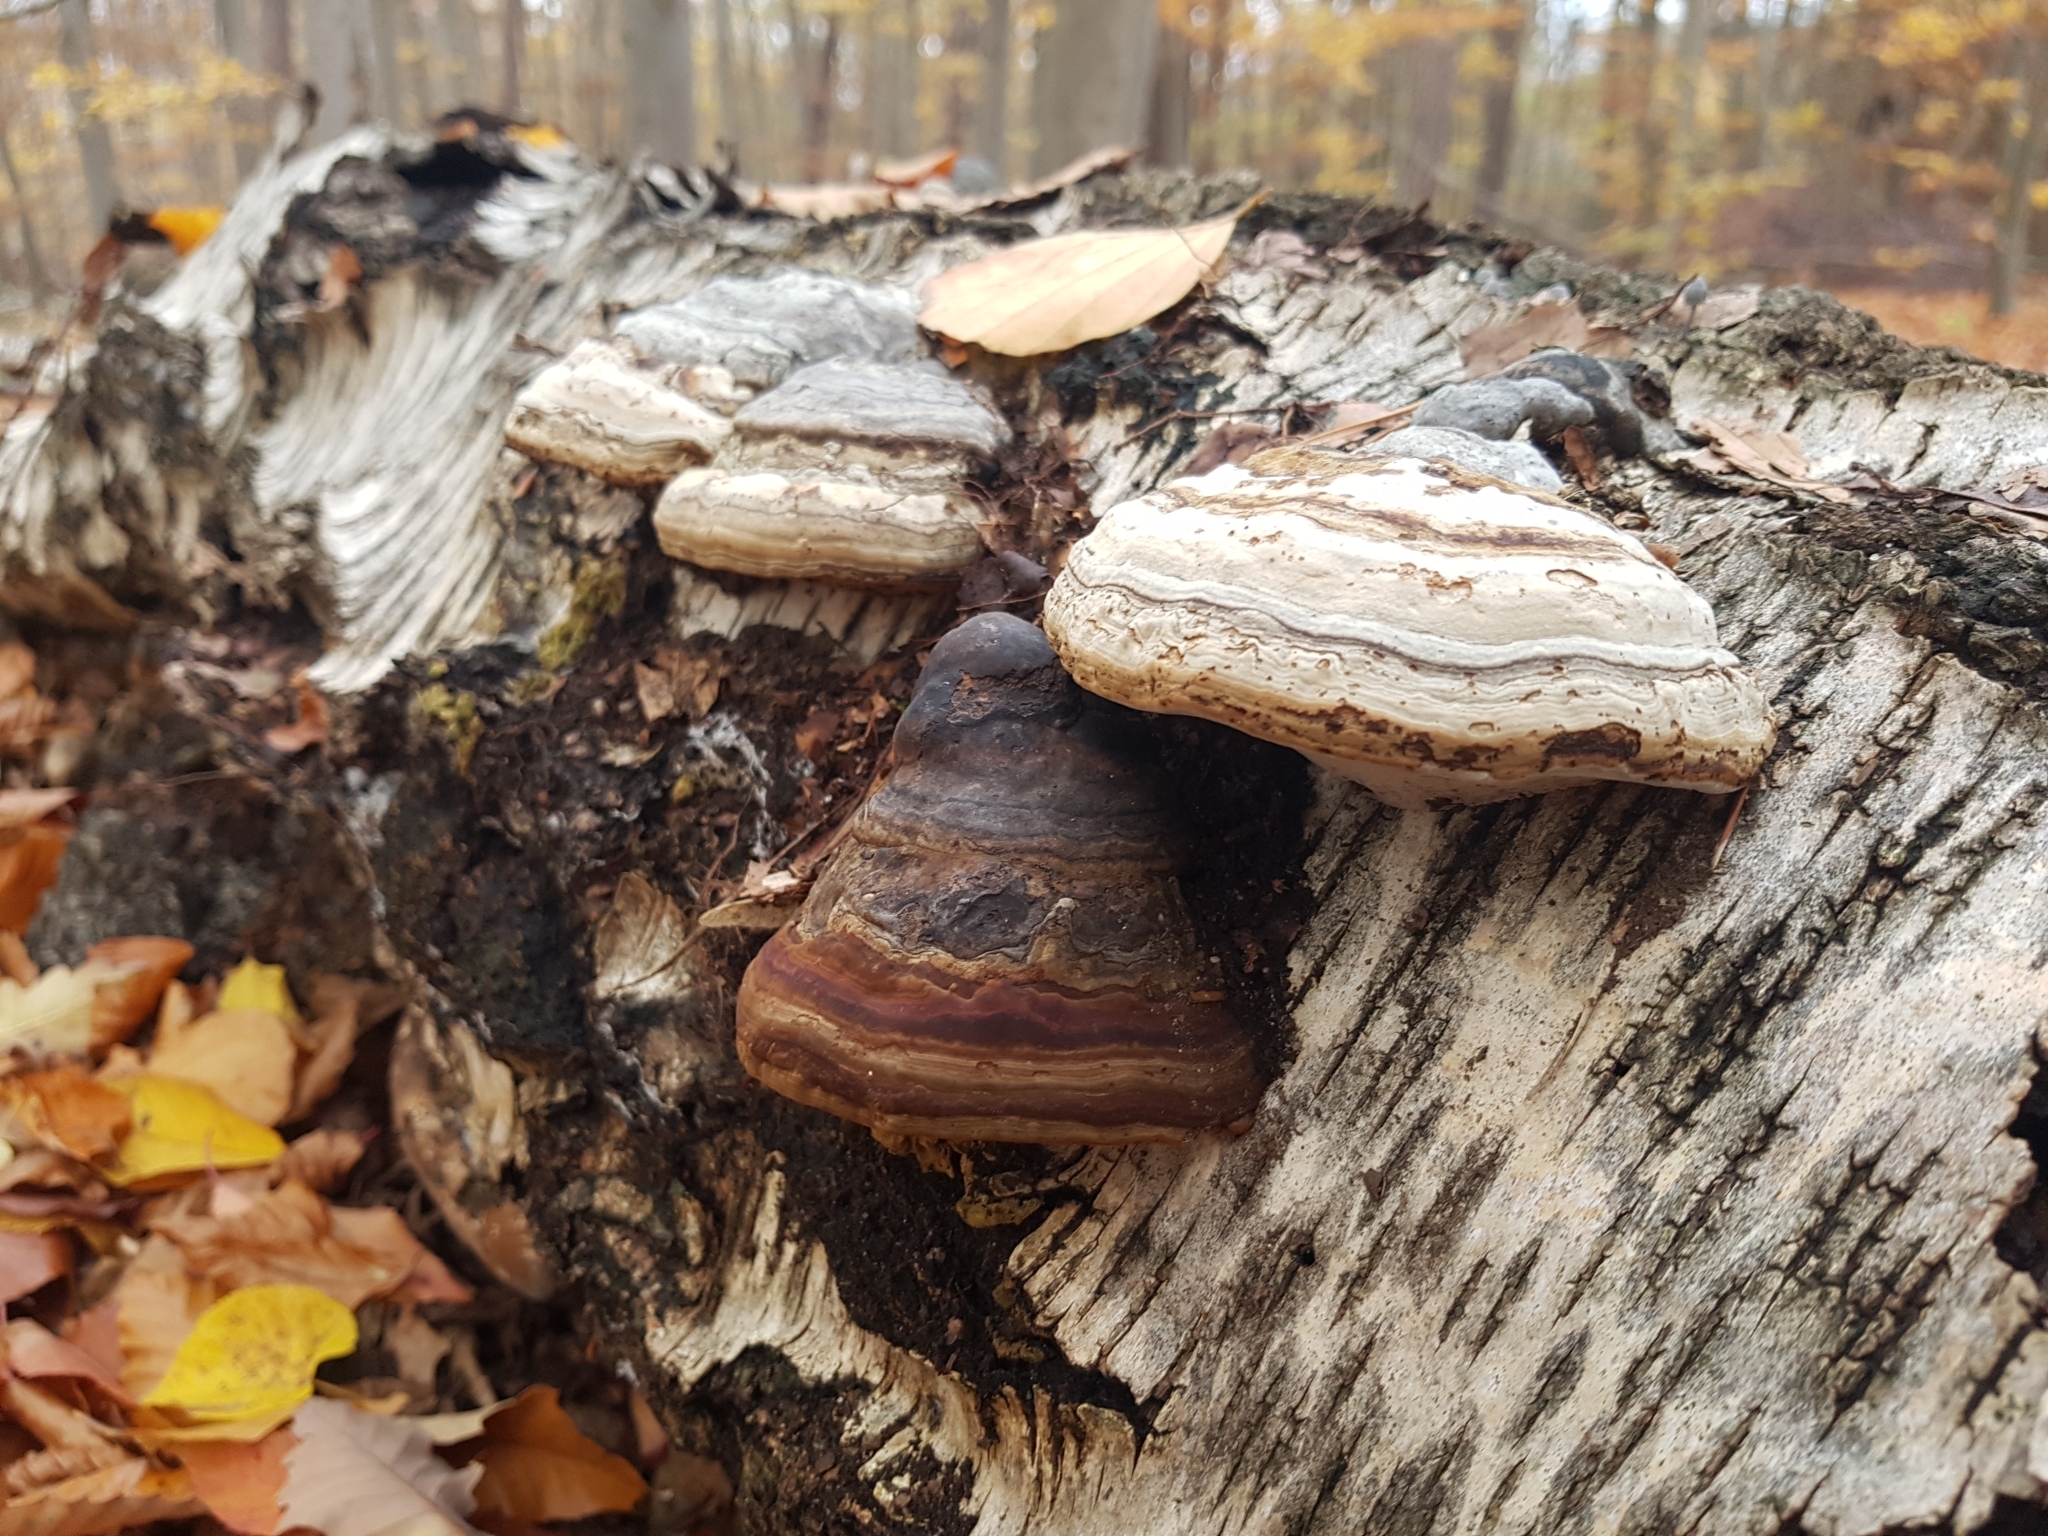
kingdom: Fungi
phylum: Basidiomycota
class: Agaricomycetes
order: Polyporales
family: Polyporaceae
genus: Fomes
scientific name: Fomes fomentarius
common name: Hoof fungus
